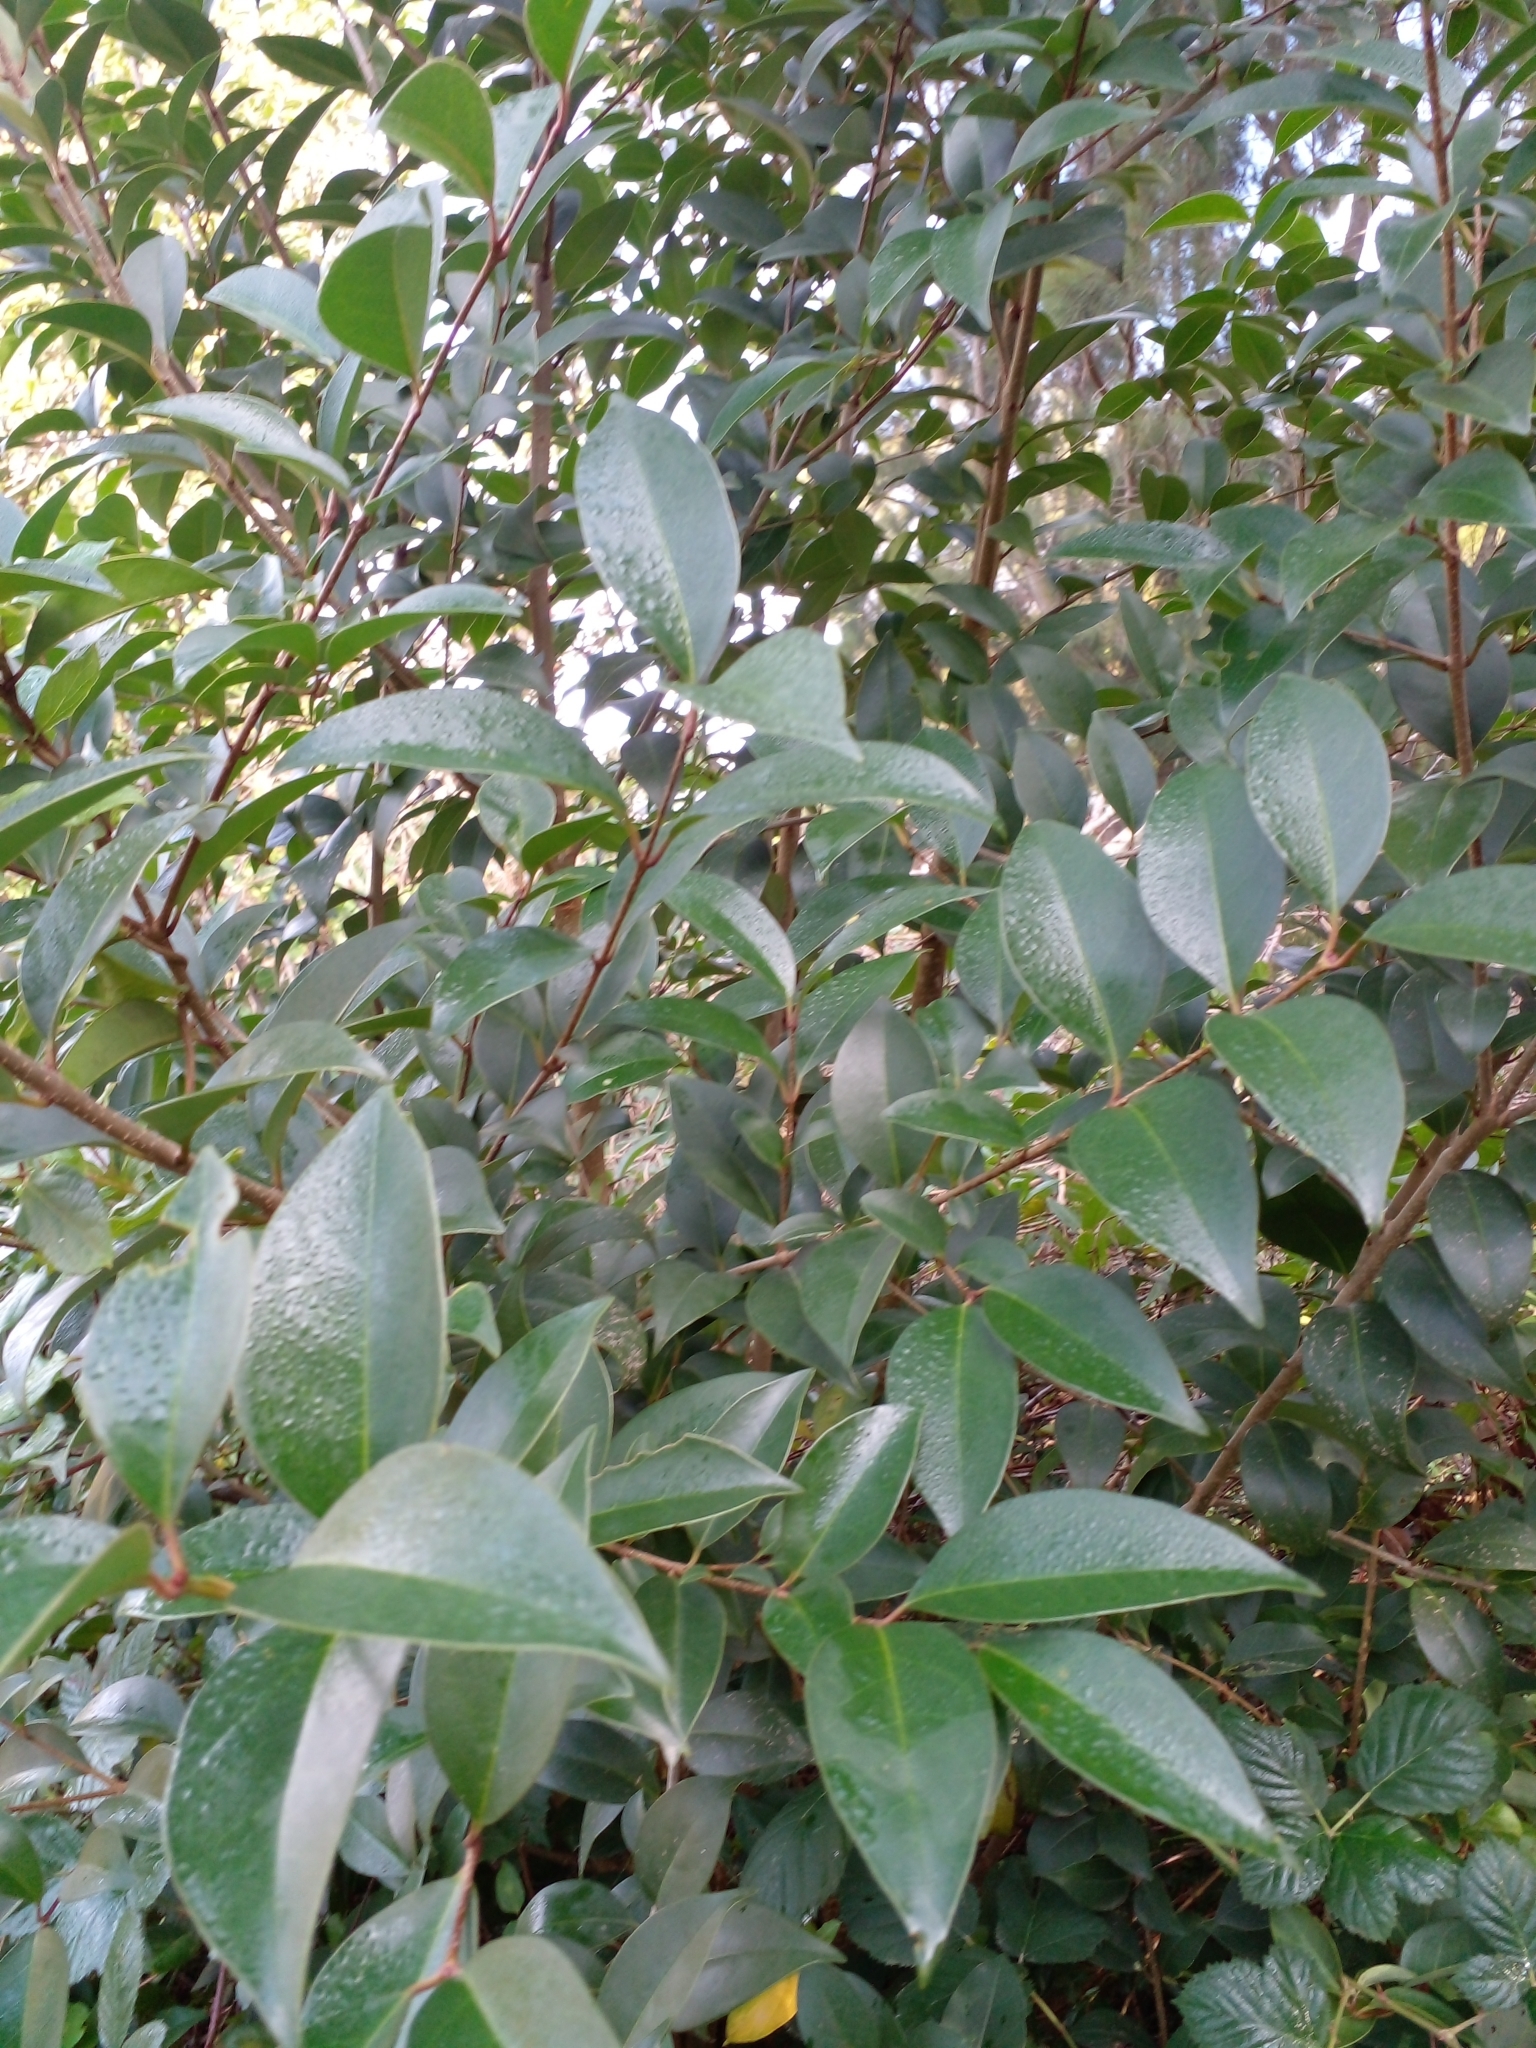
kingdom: Plantae
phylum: Tracheophyta
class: Magnoliopsida
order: Lamiales
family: Oleaceae
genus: Ligustrum
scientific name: Ligustrum lucidum
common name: Glossy privet
